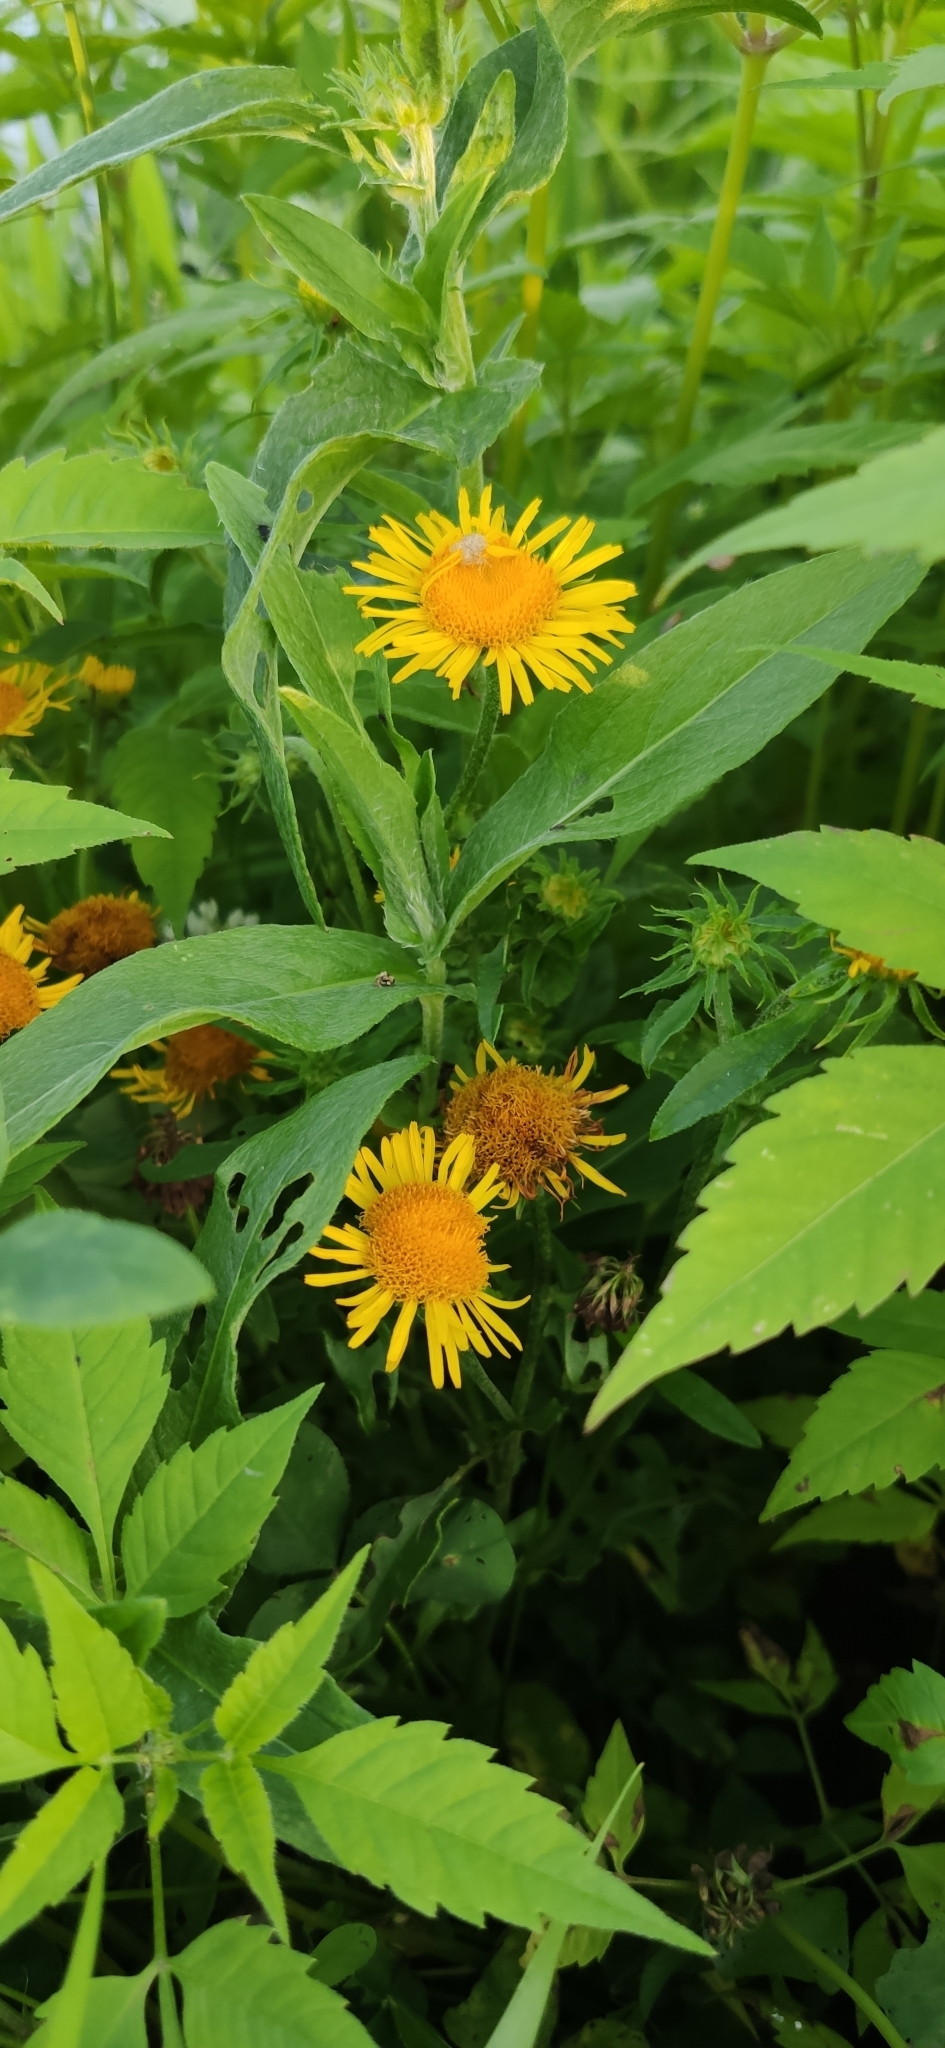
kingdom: Plantae
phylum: Tracheophyta
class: Magnoliopsida
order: Asterales
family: Asteraceae
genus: Pentanema
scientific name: Pentanema britannicum
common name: British elecampane
